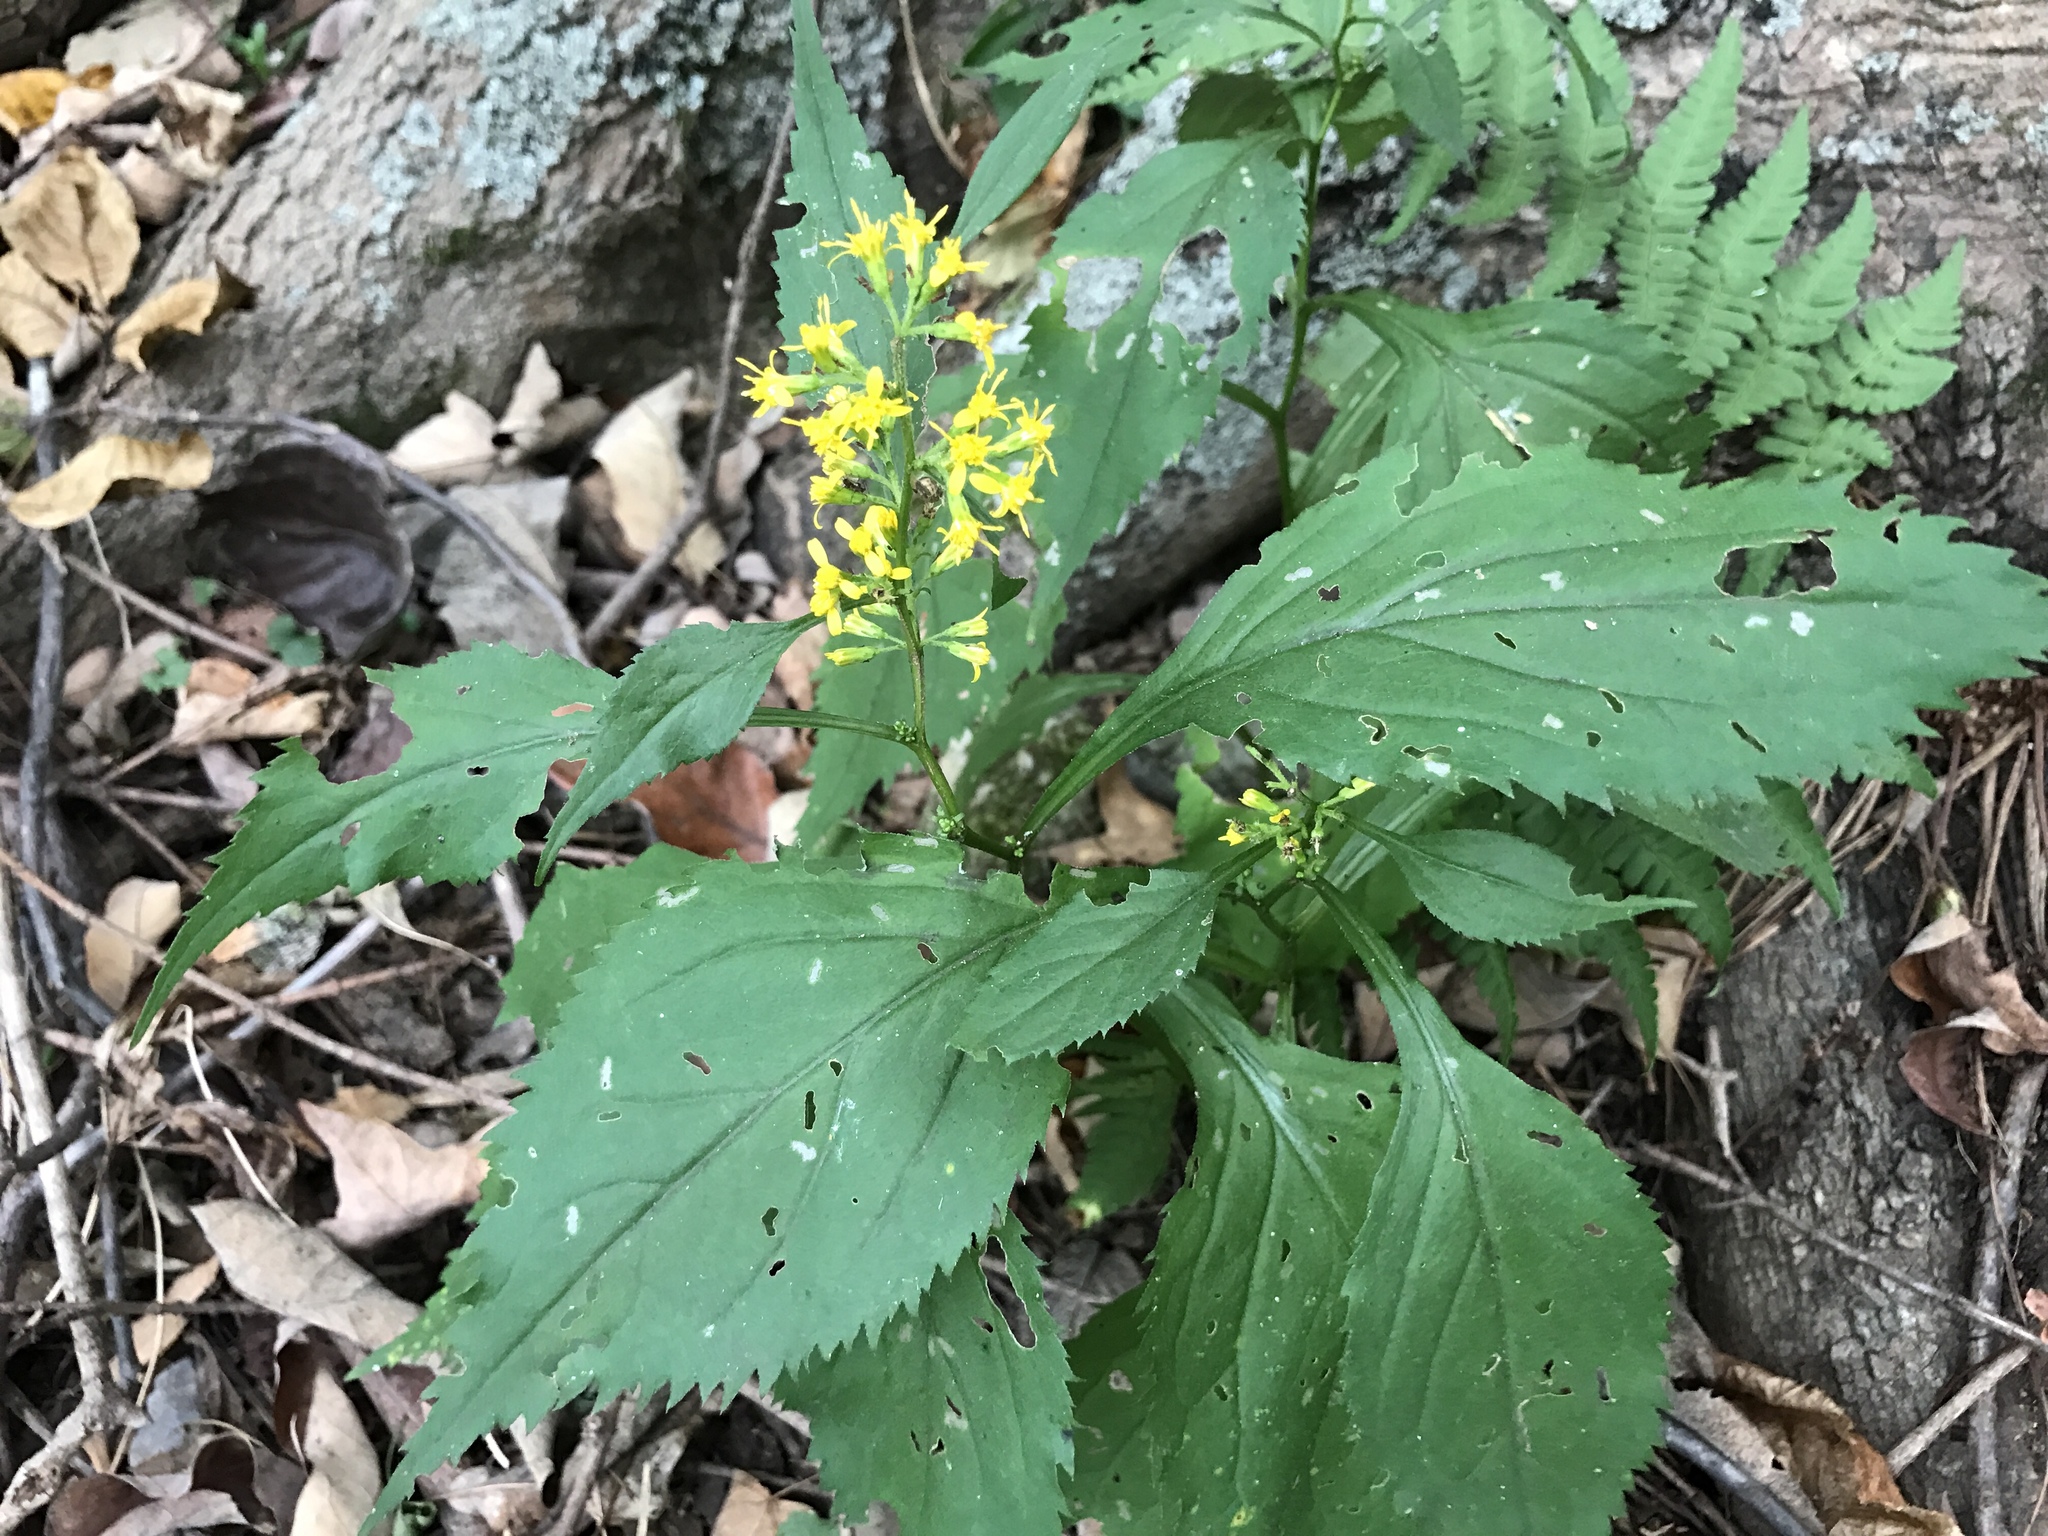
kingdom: Plantae
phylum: Tracheophyta
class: Magnoliopsida
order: Asterales
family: Asteraceae
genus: Solidago
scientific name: Solidago flexicaulis
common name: Zig-zag goldenrod
